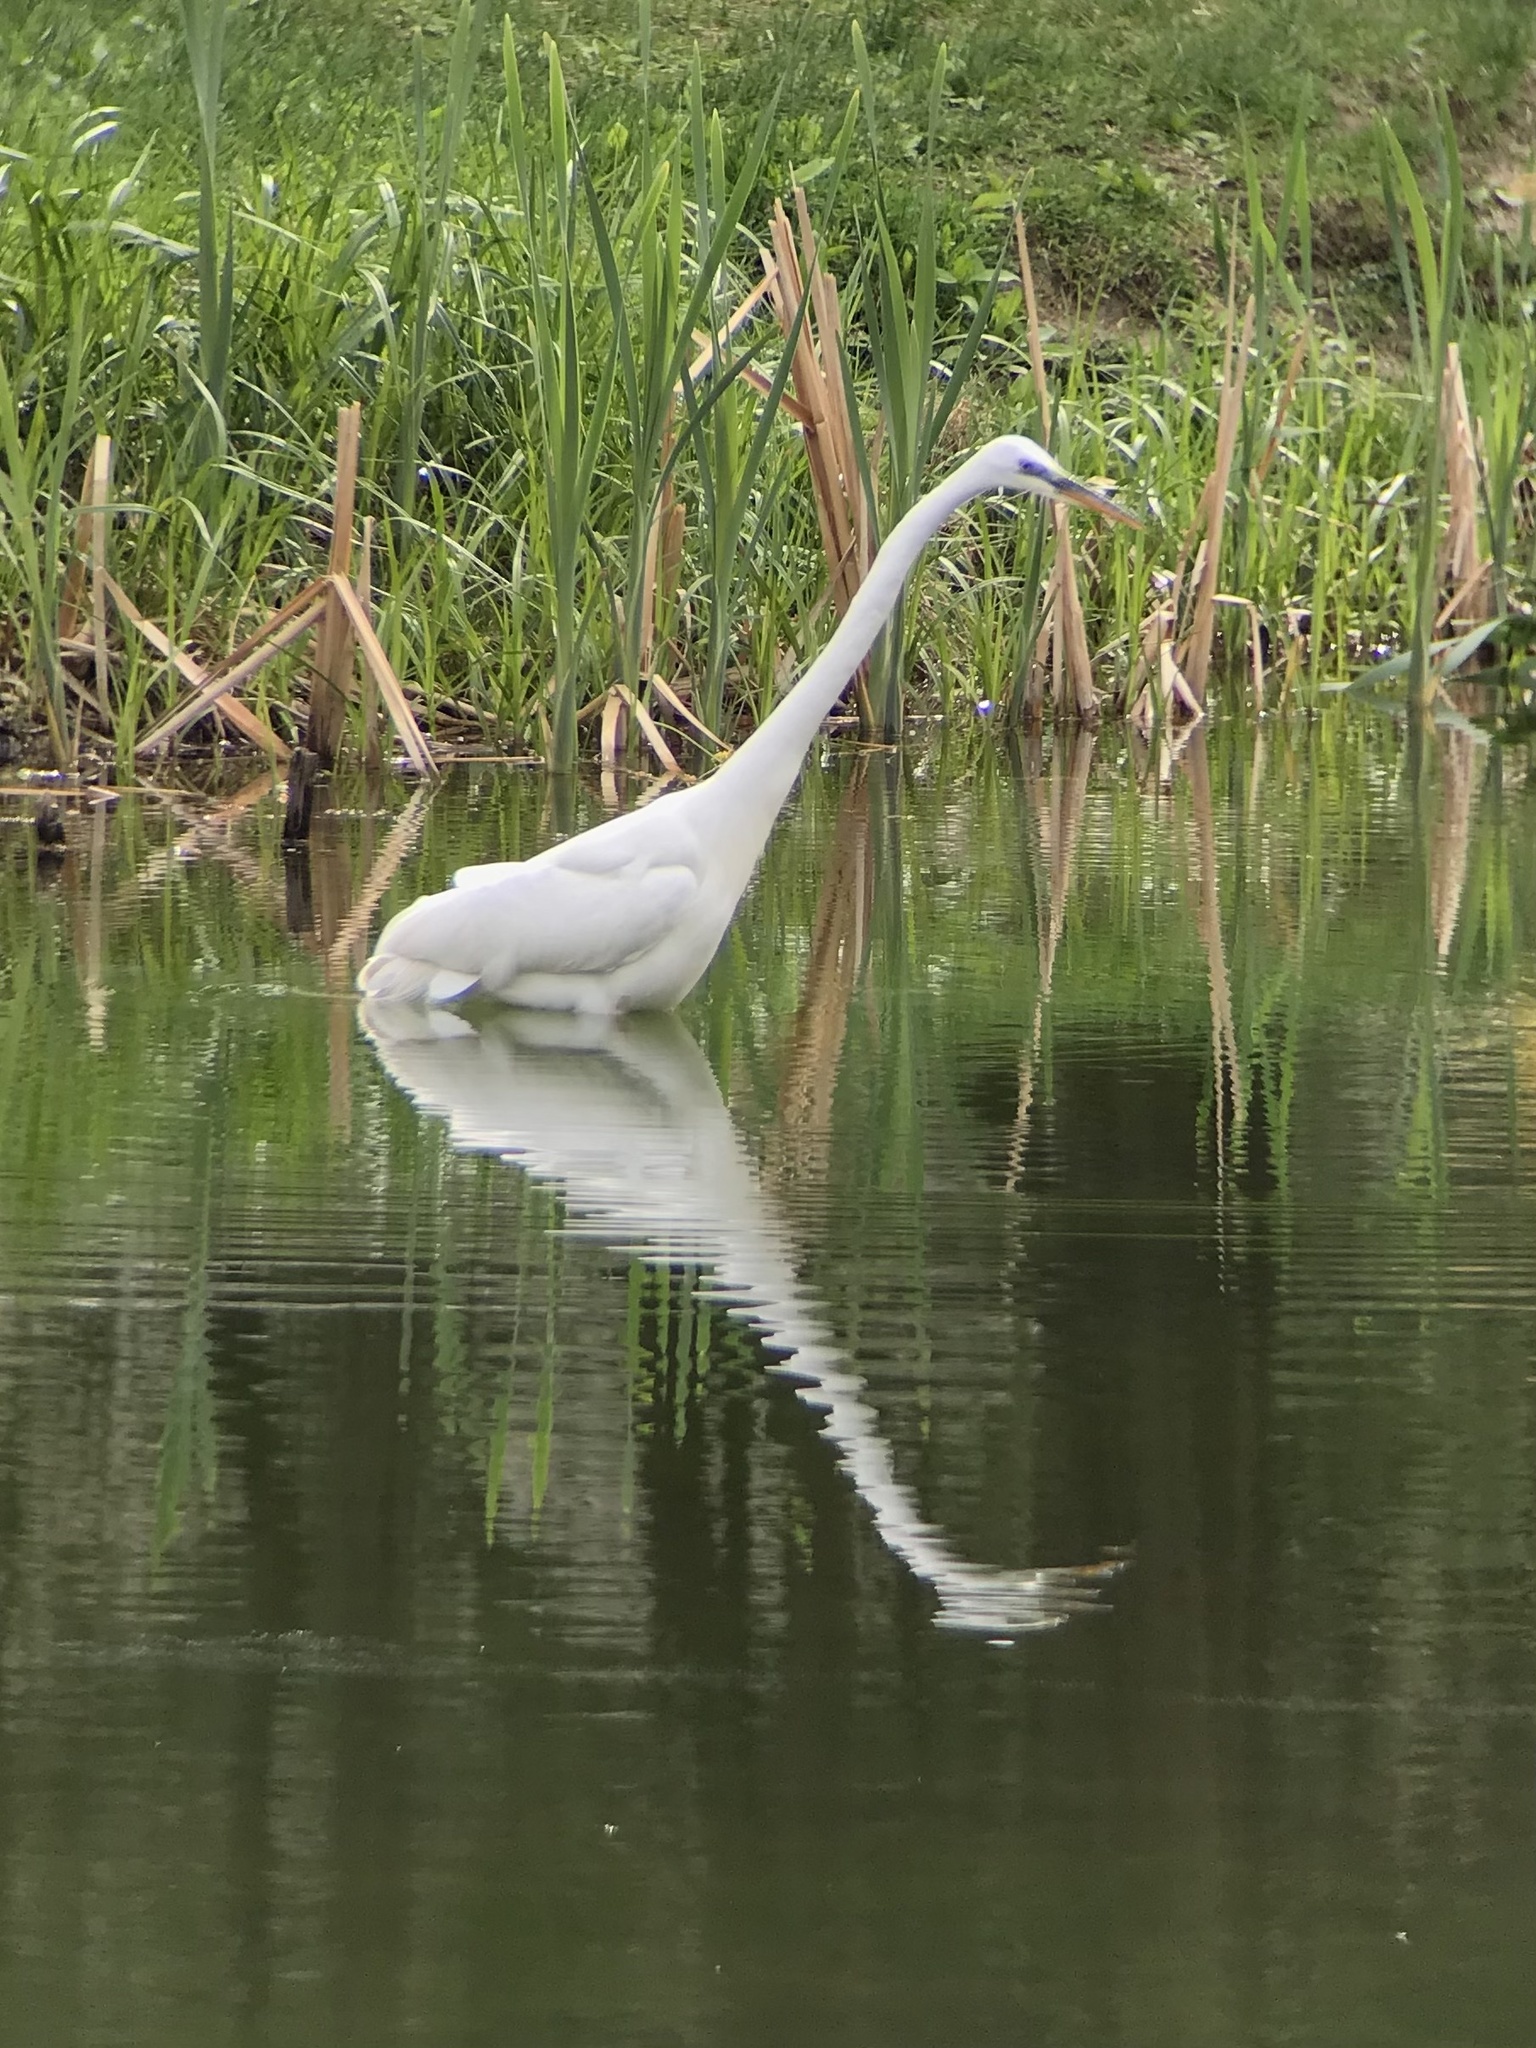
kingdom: Animalia
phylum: Chordata
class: Aves
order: Pelecaniformes
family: Ardeidae
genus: Ardea
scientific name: Ardea alba
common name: Great egret
